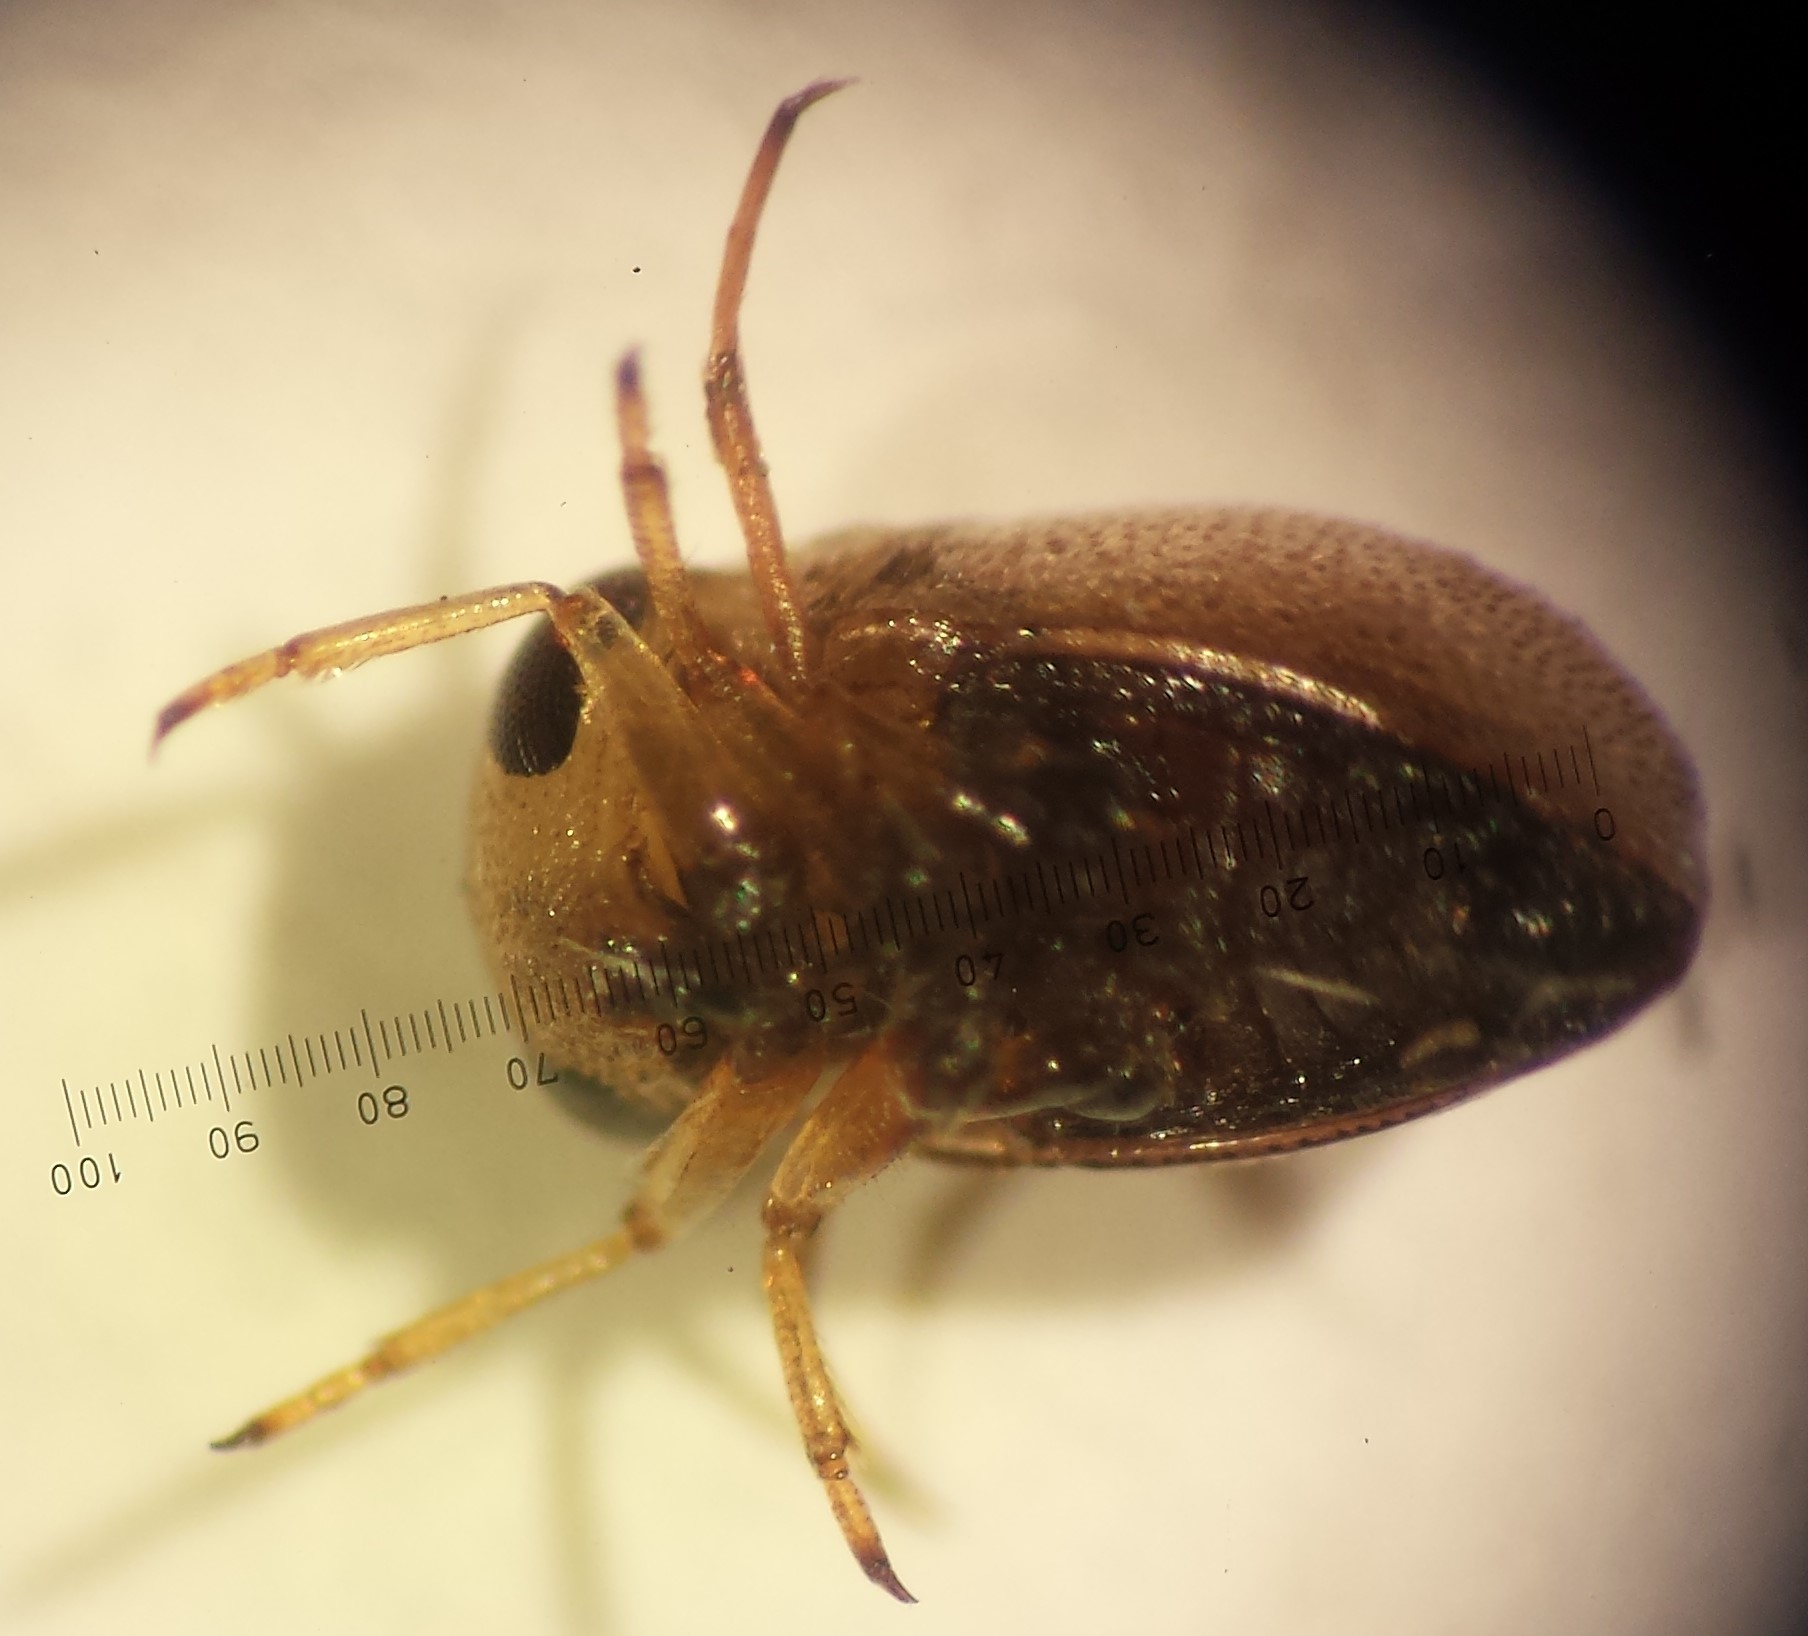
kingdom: Animalia
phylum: Arthropoda
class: Insecta
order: Hemiptera
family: Pleidae
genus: Neoplea
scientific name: Neoplea striola
